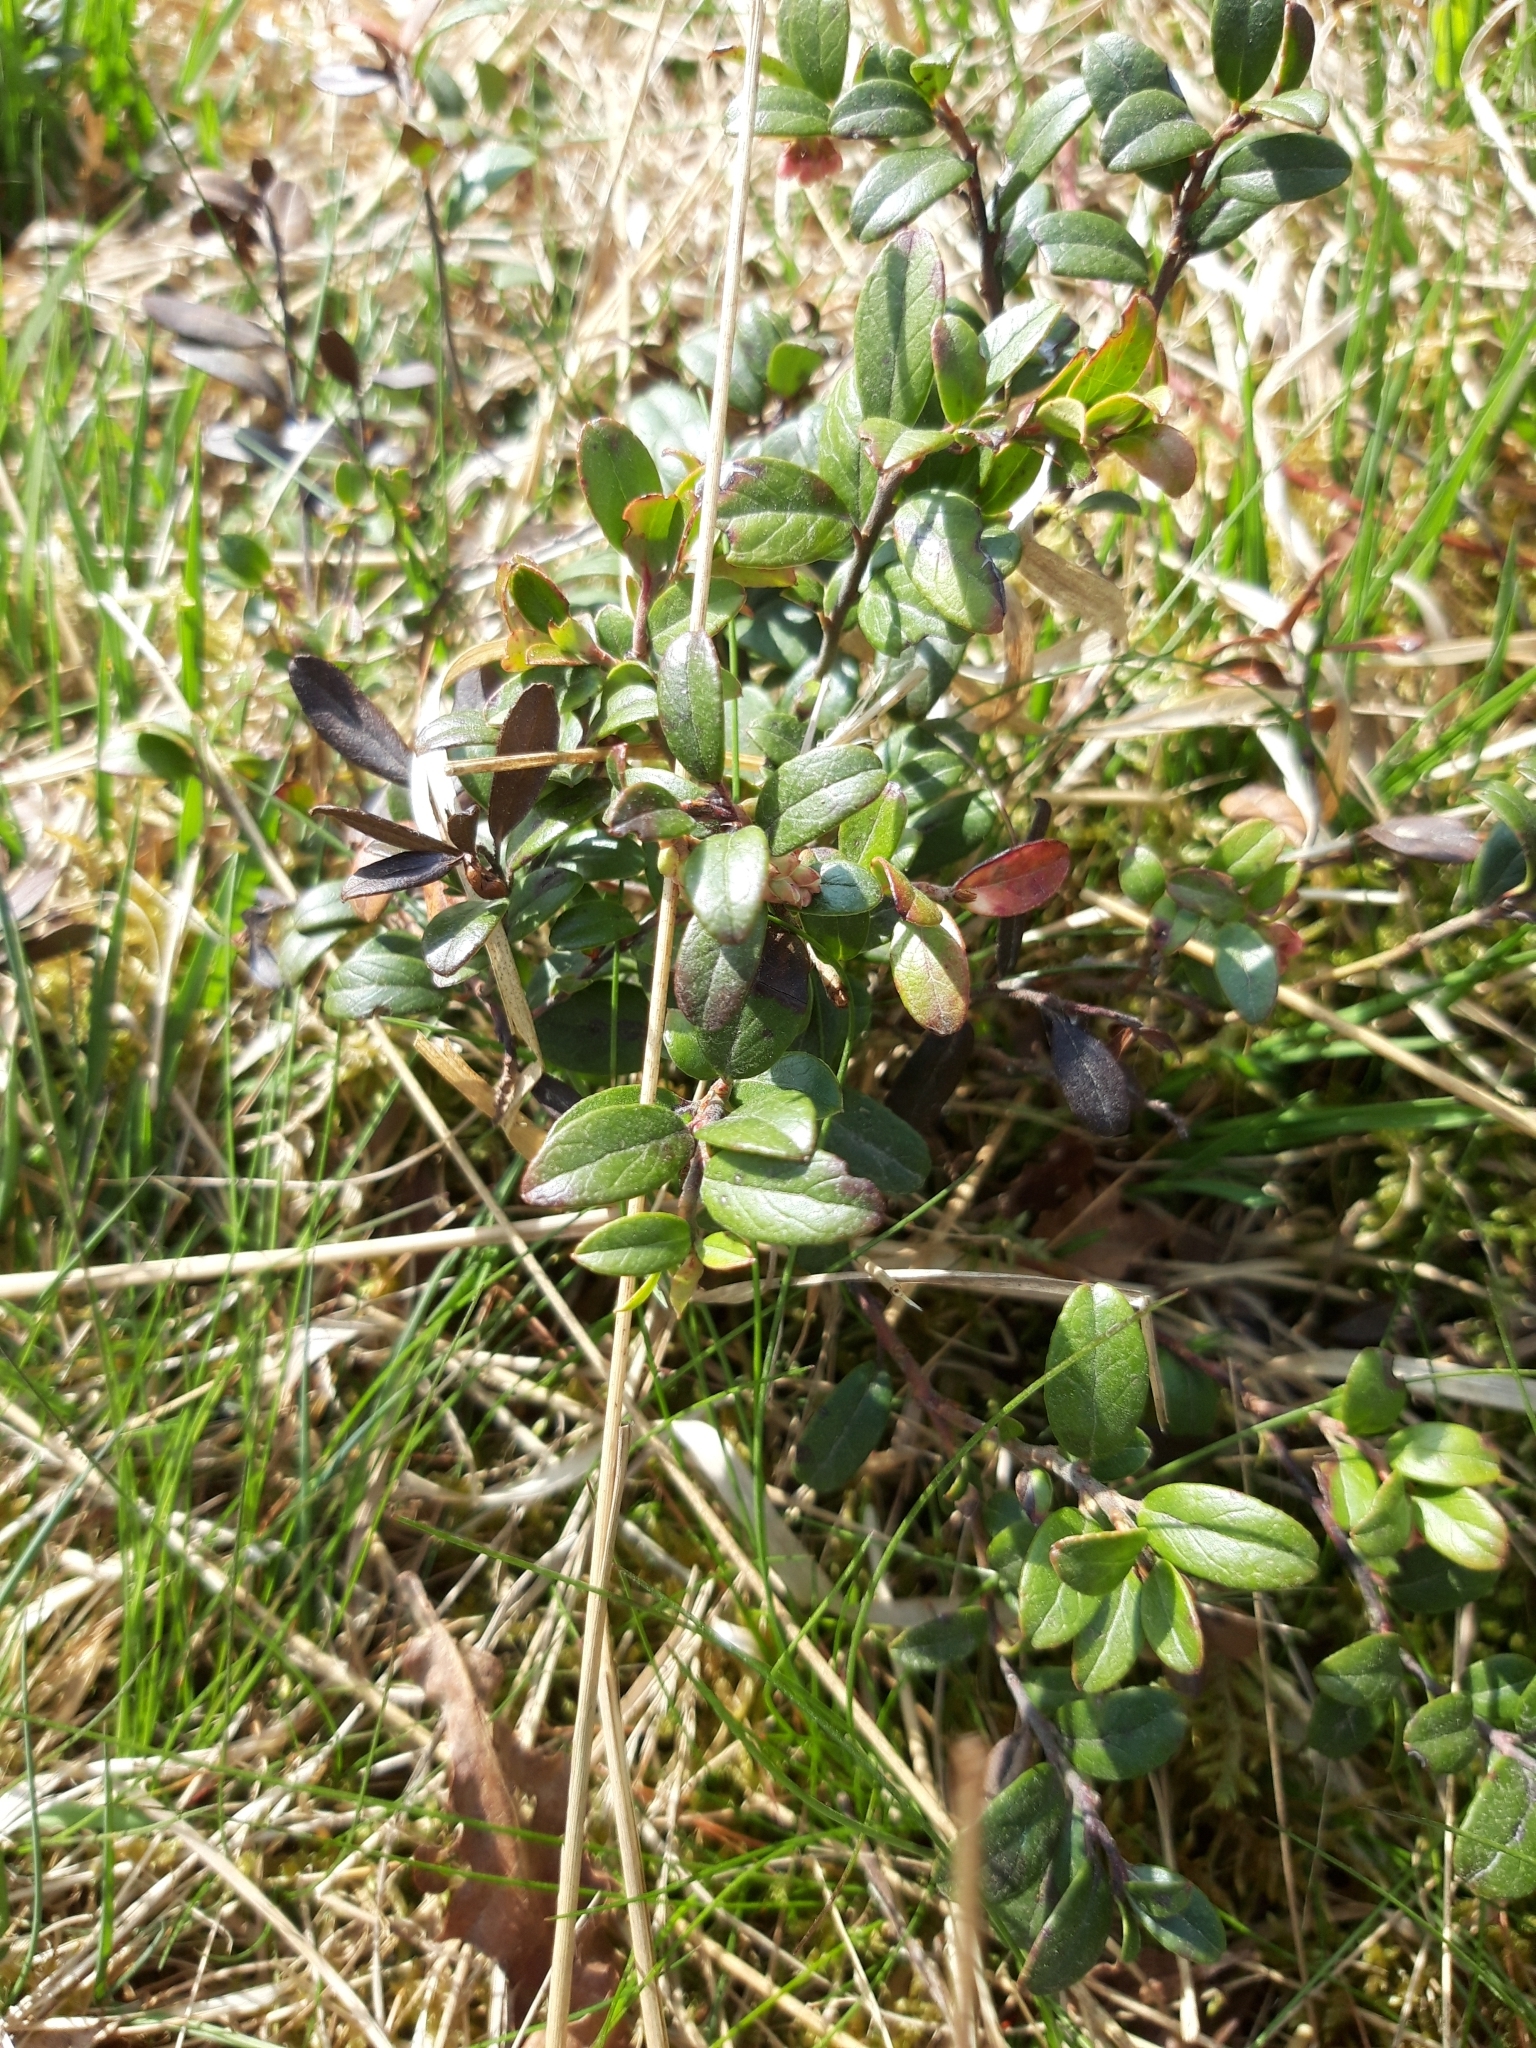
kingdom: Plantae
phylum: Tracheophyta
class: Magnoliopsida
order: Ericales
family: Ericaceae
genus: Vaccinium
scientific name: Vaccinium vitis-idaea
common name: Cowberry
